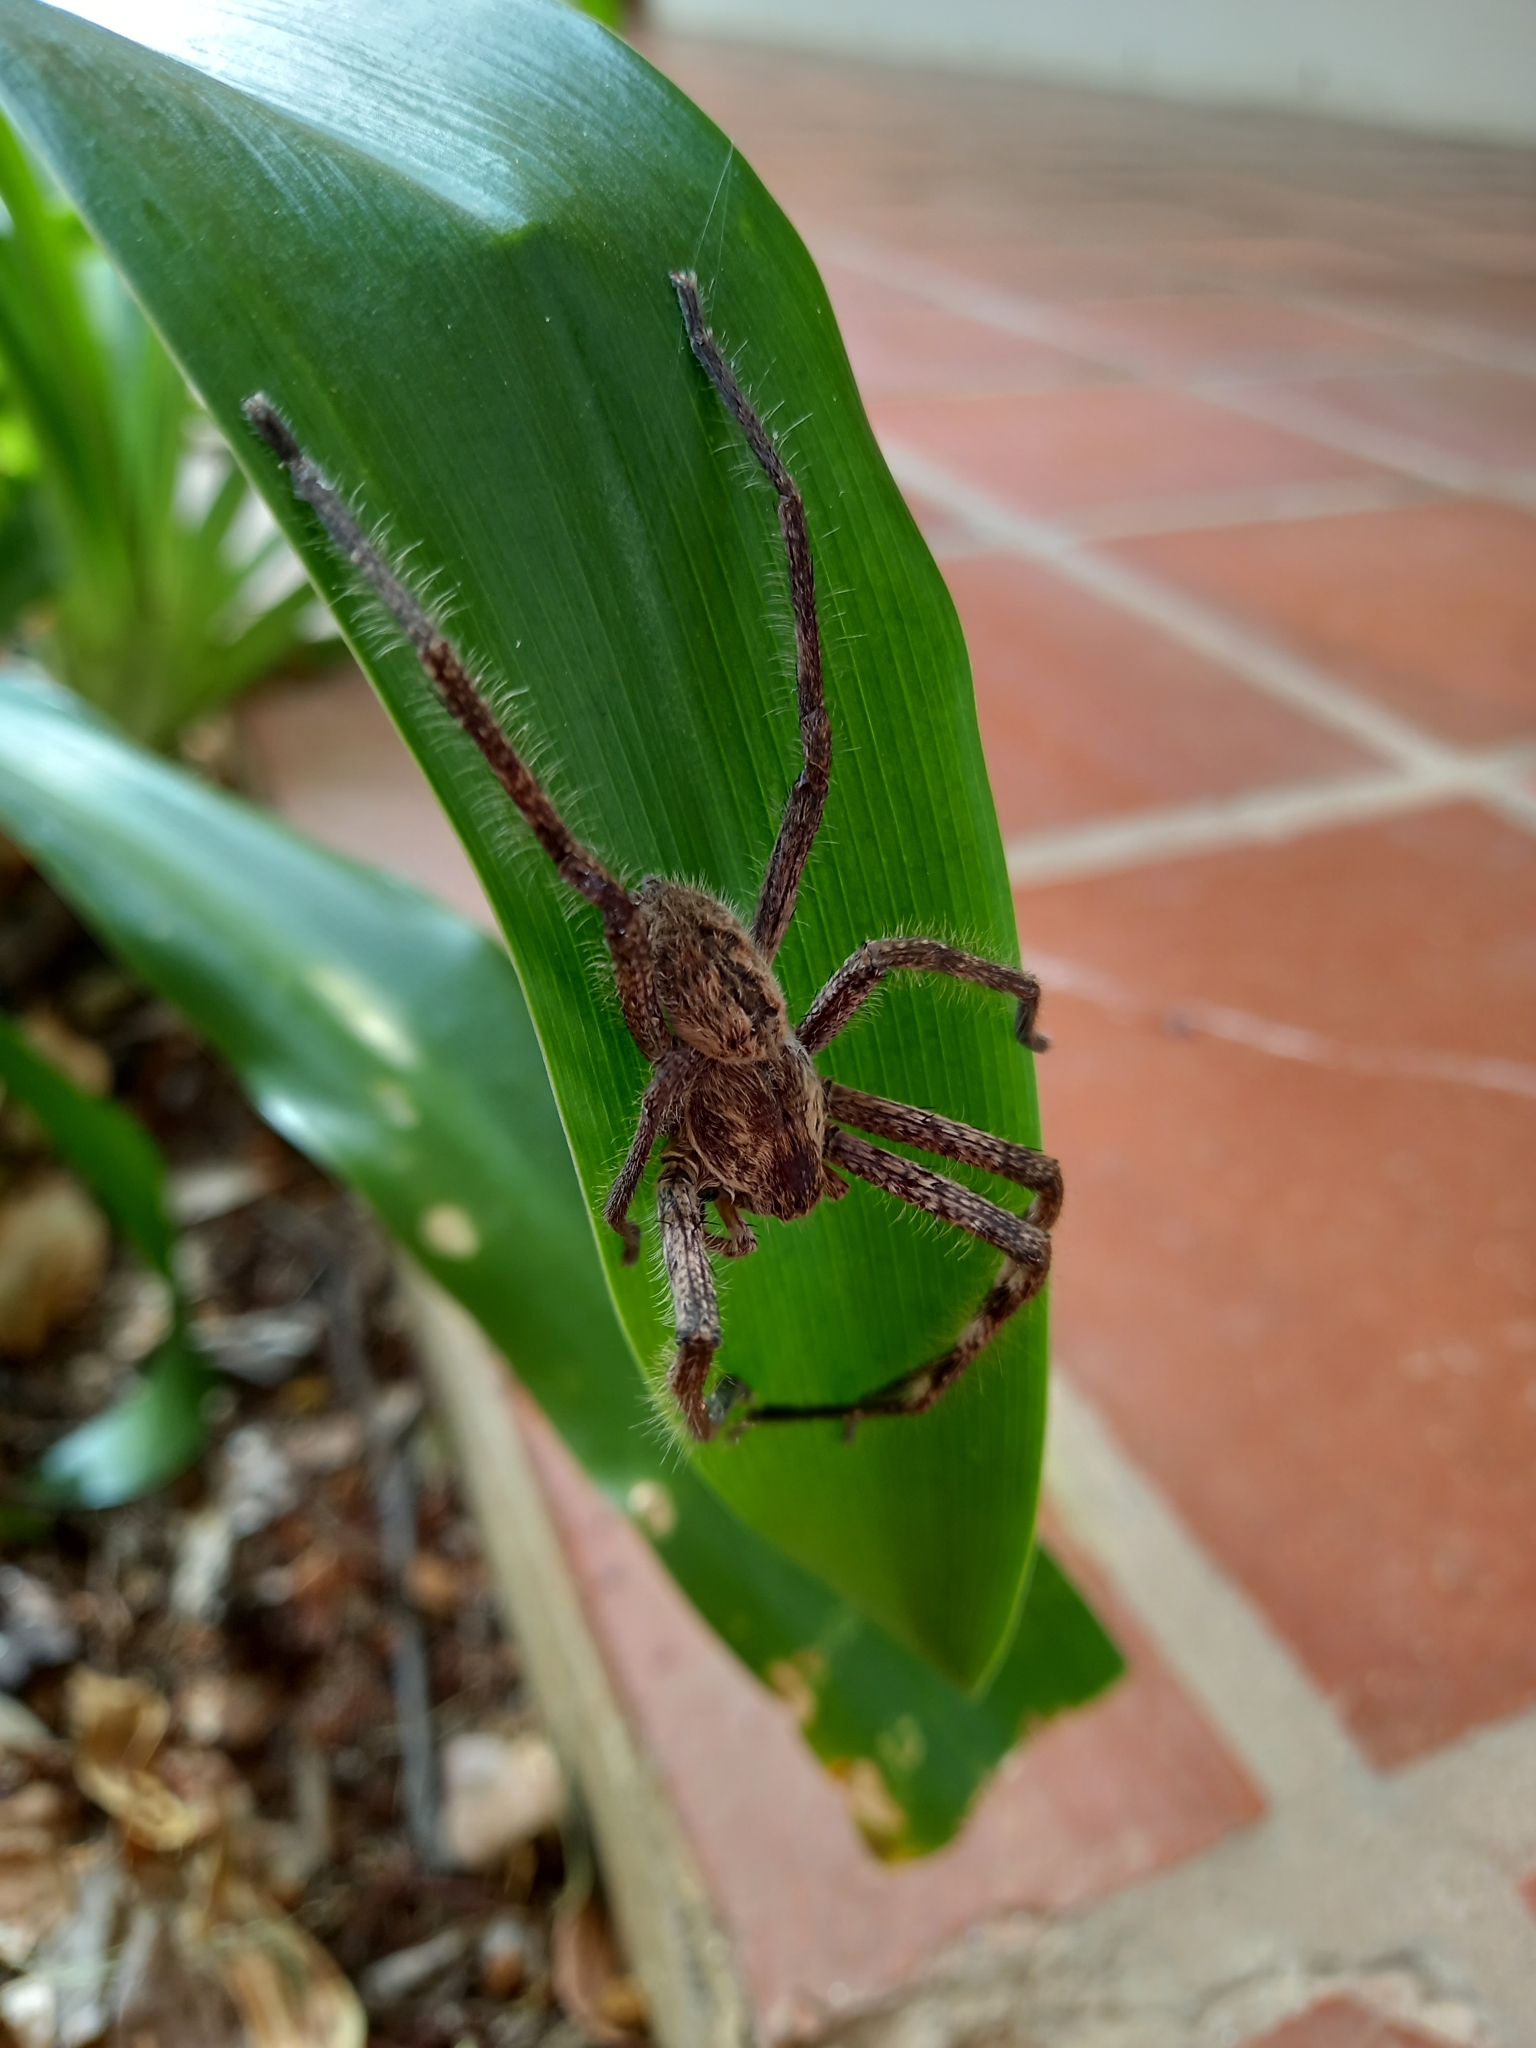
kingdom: Animalia
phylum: Arthropoda
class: Arachnida
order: Araneae
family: Sparassidae
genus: Palystes
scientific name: Palystes superciliosus
